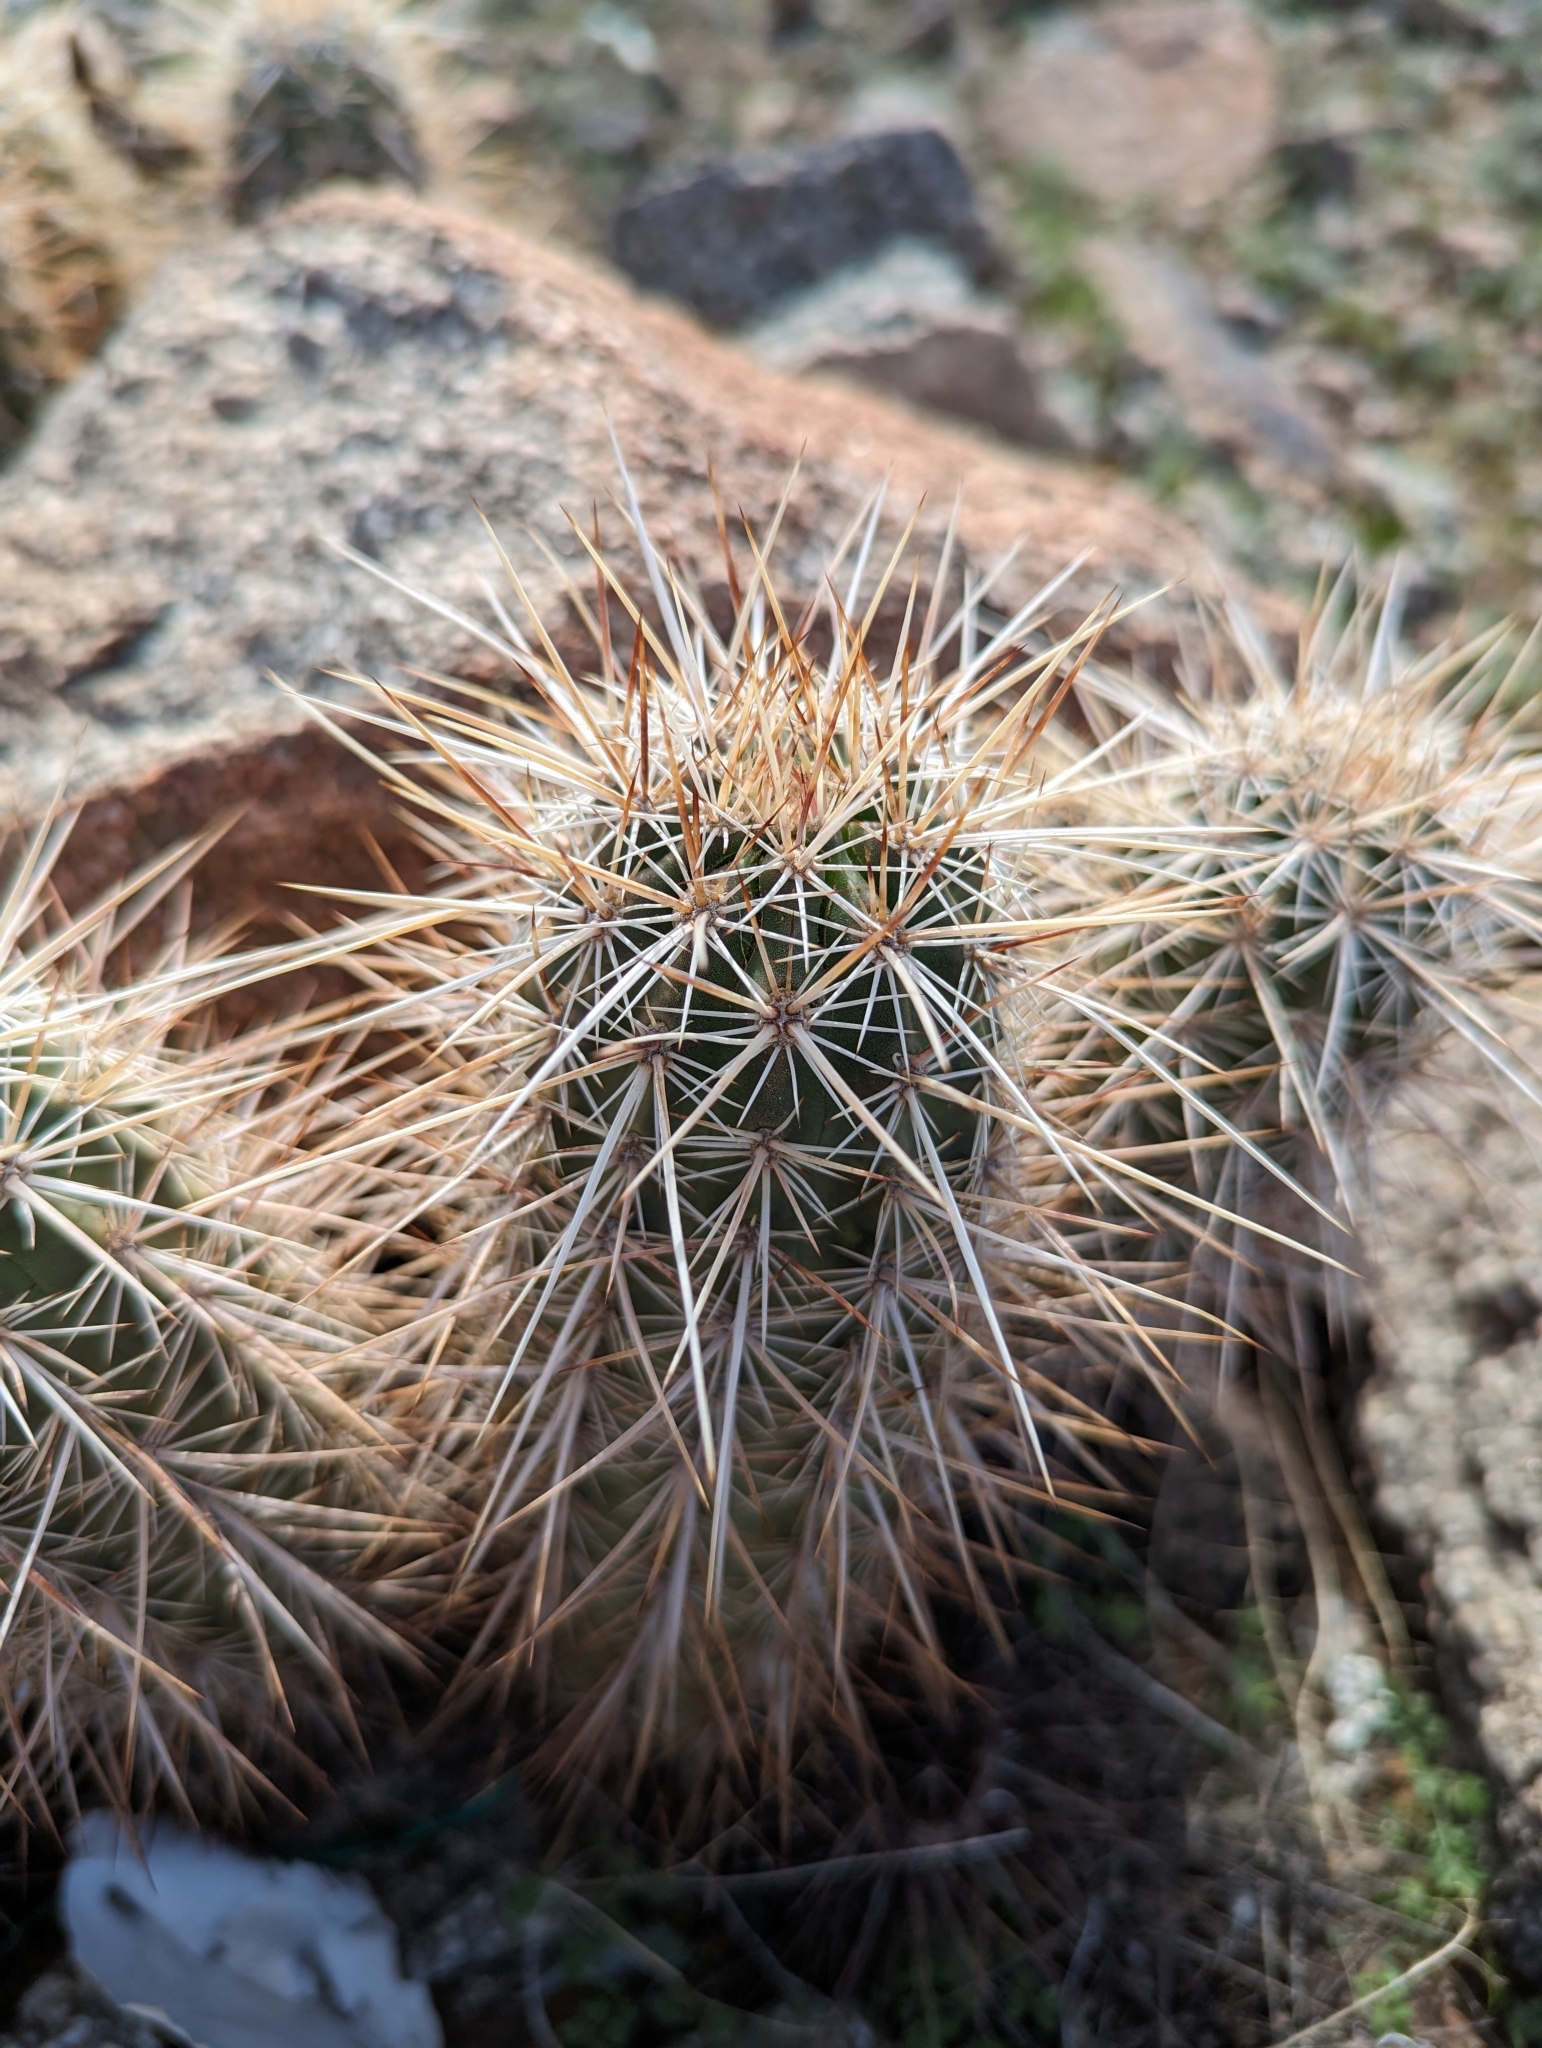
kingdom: Plantae
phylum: Tracheophyta
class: Magnoliopsida
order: Caryophyllales
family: Cactaceae
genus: Echinocereus
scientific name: Echinocereus engelmannii
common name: Engelmann's hedgehog cactus
